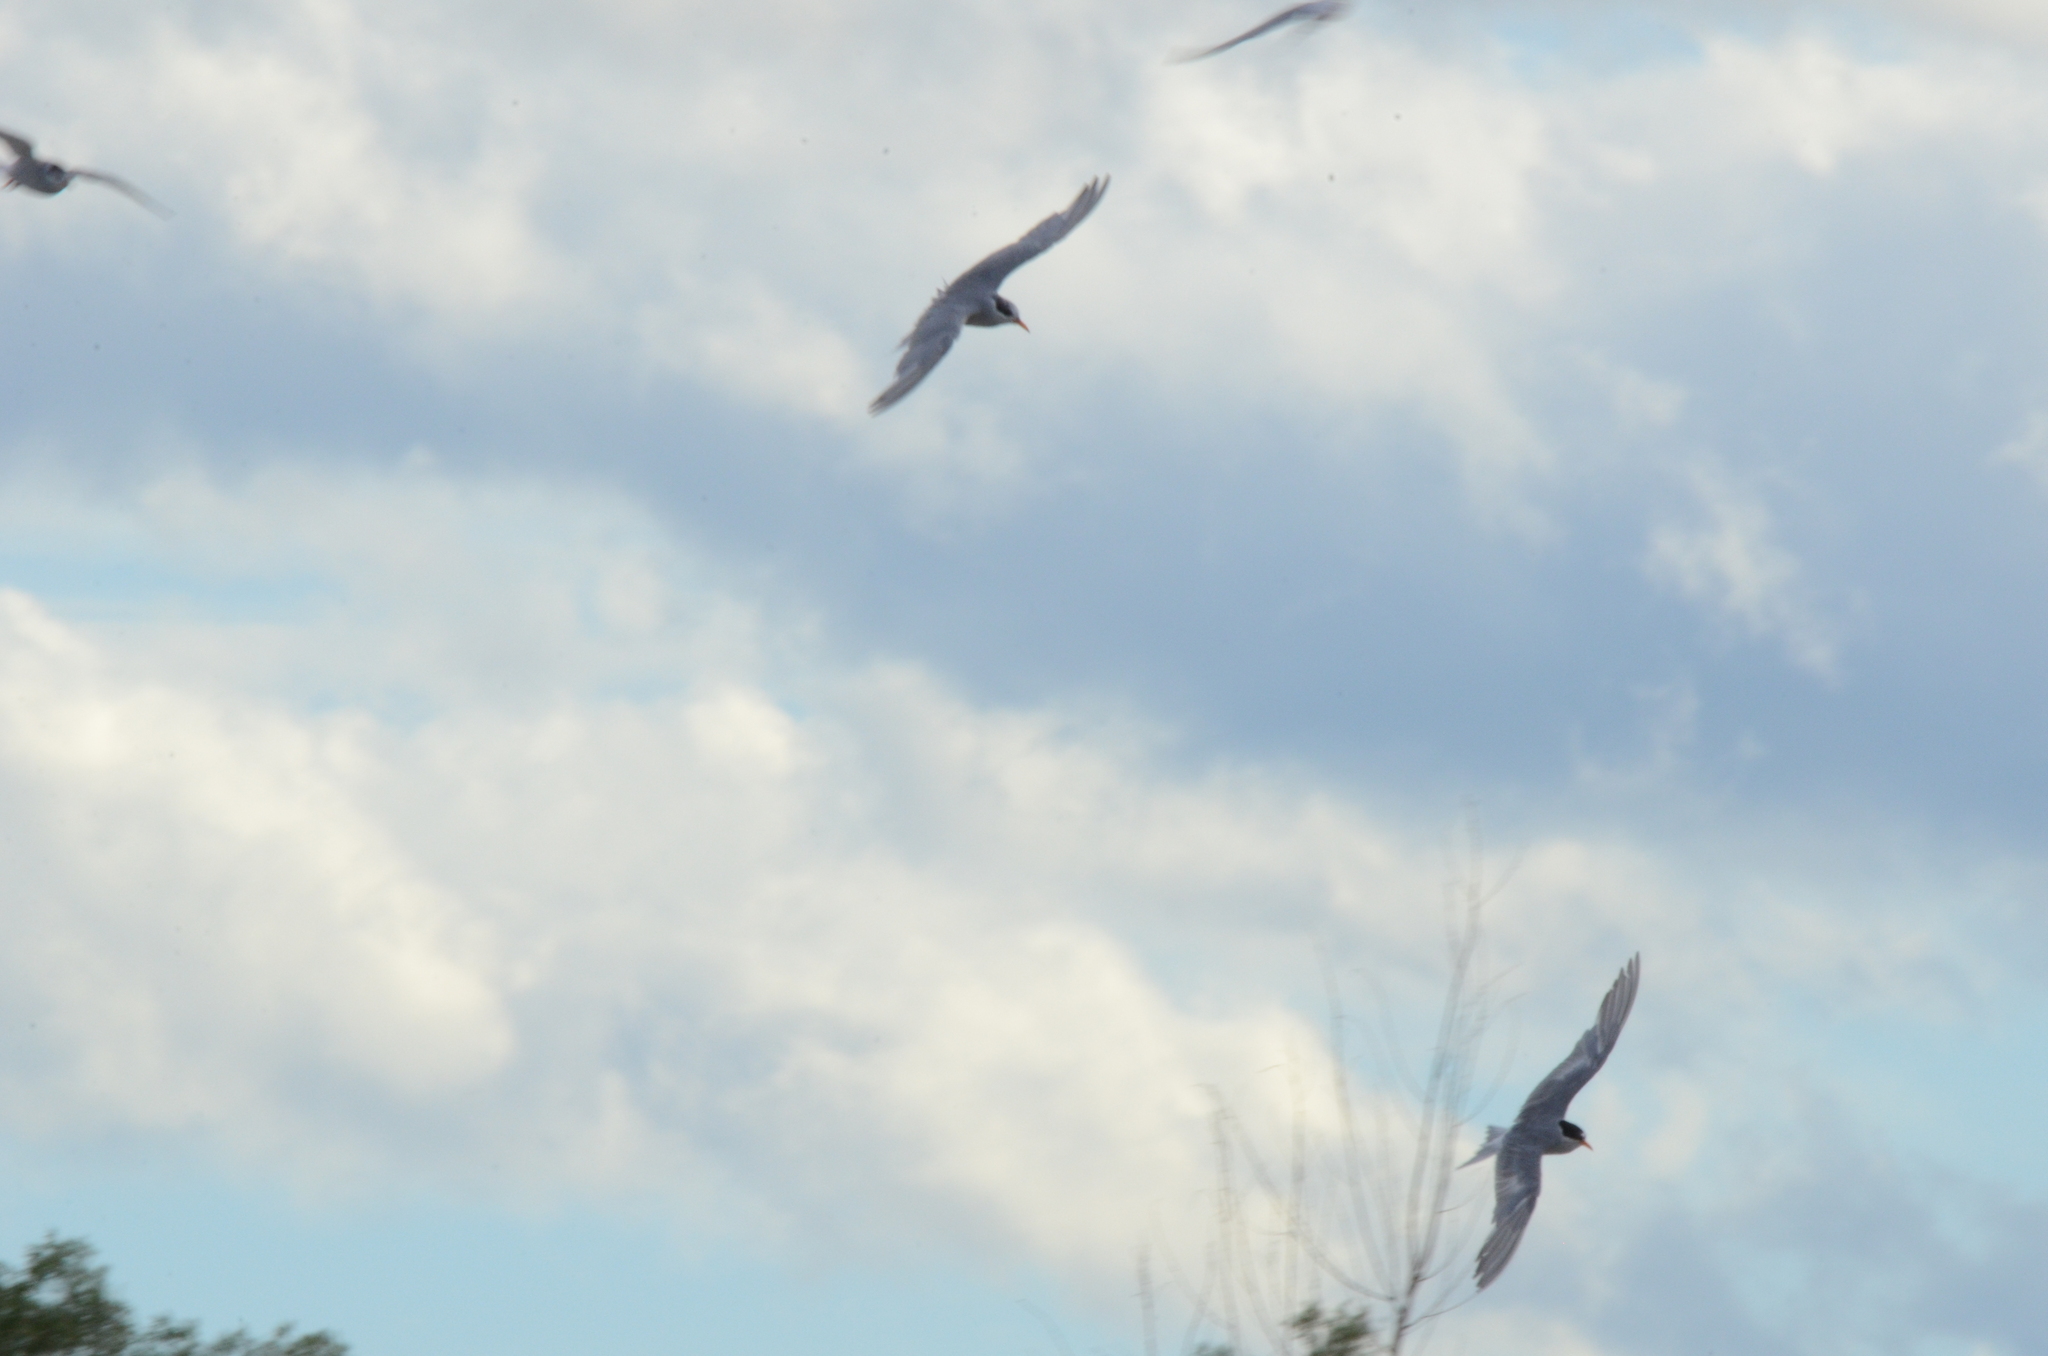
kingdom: Animalia
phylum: Chordata
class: Aves
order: Charadriiformes
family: Laridae
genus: Chlidonias
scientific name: Chlidonias albostriatus
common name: Black-fronted tern
